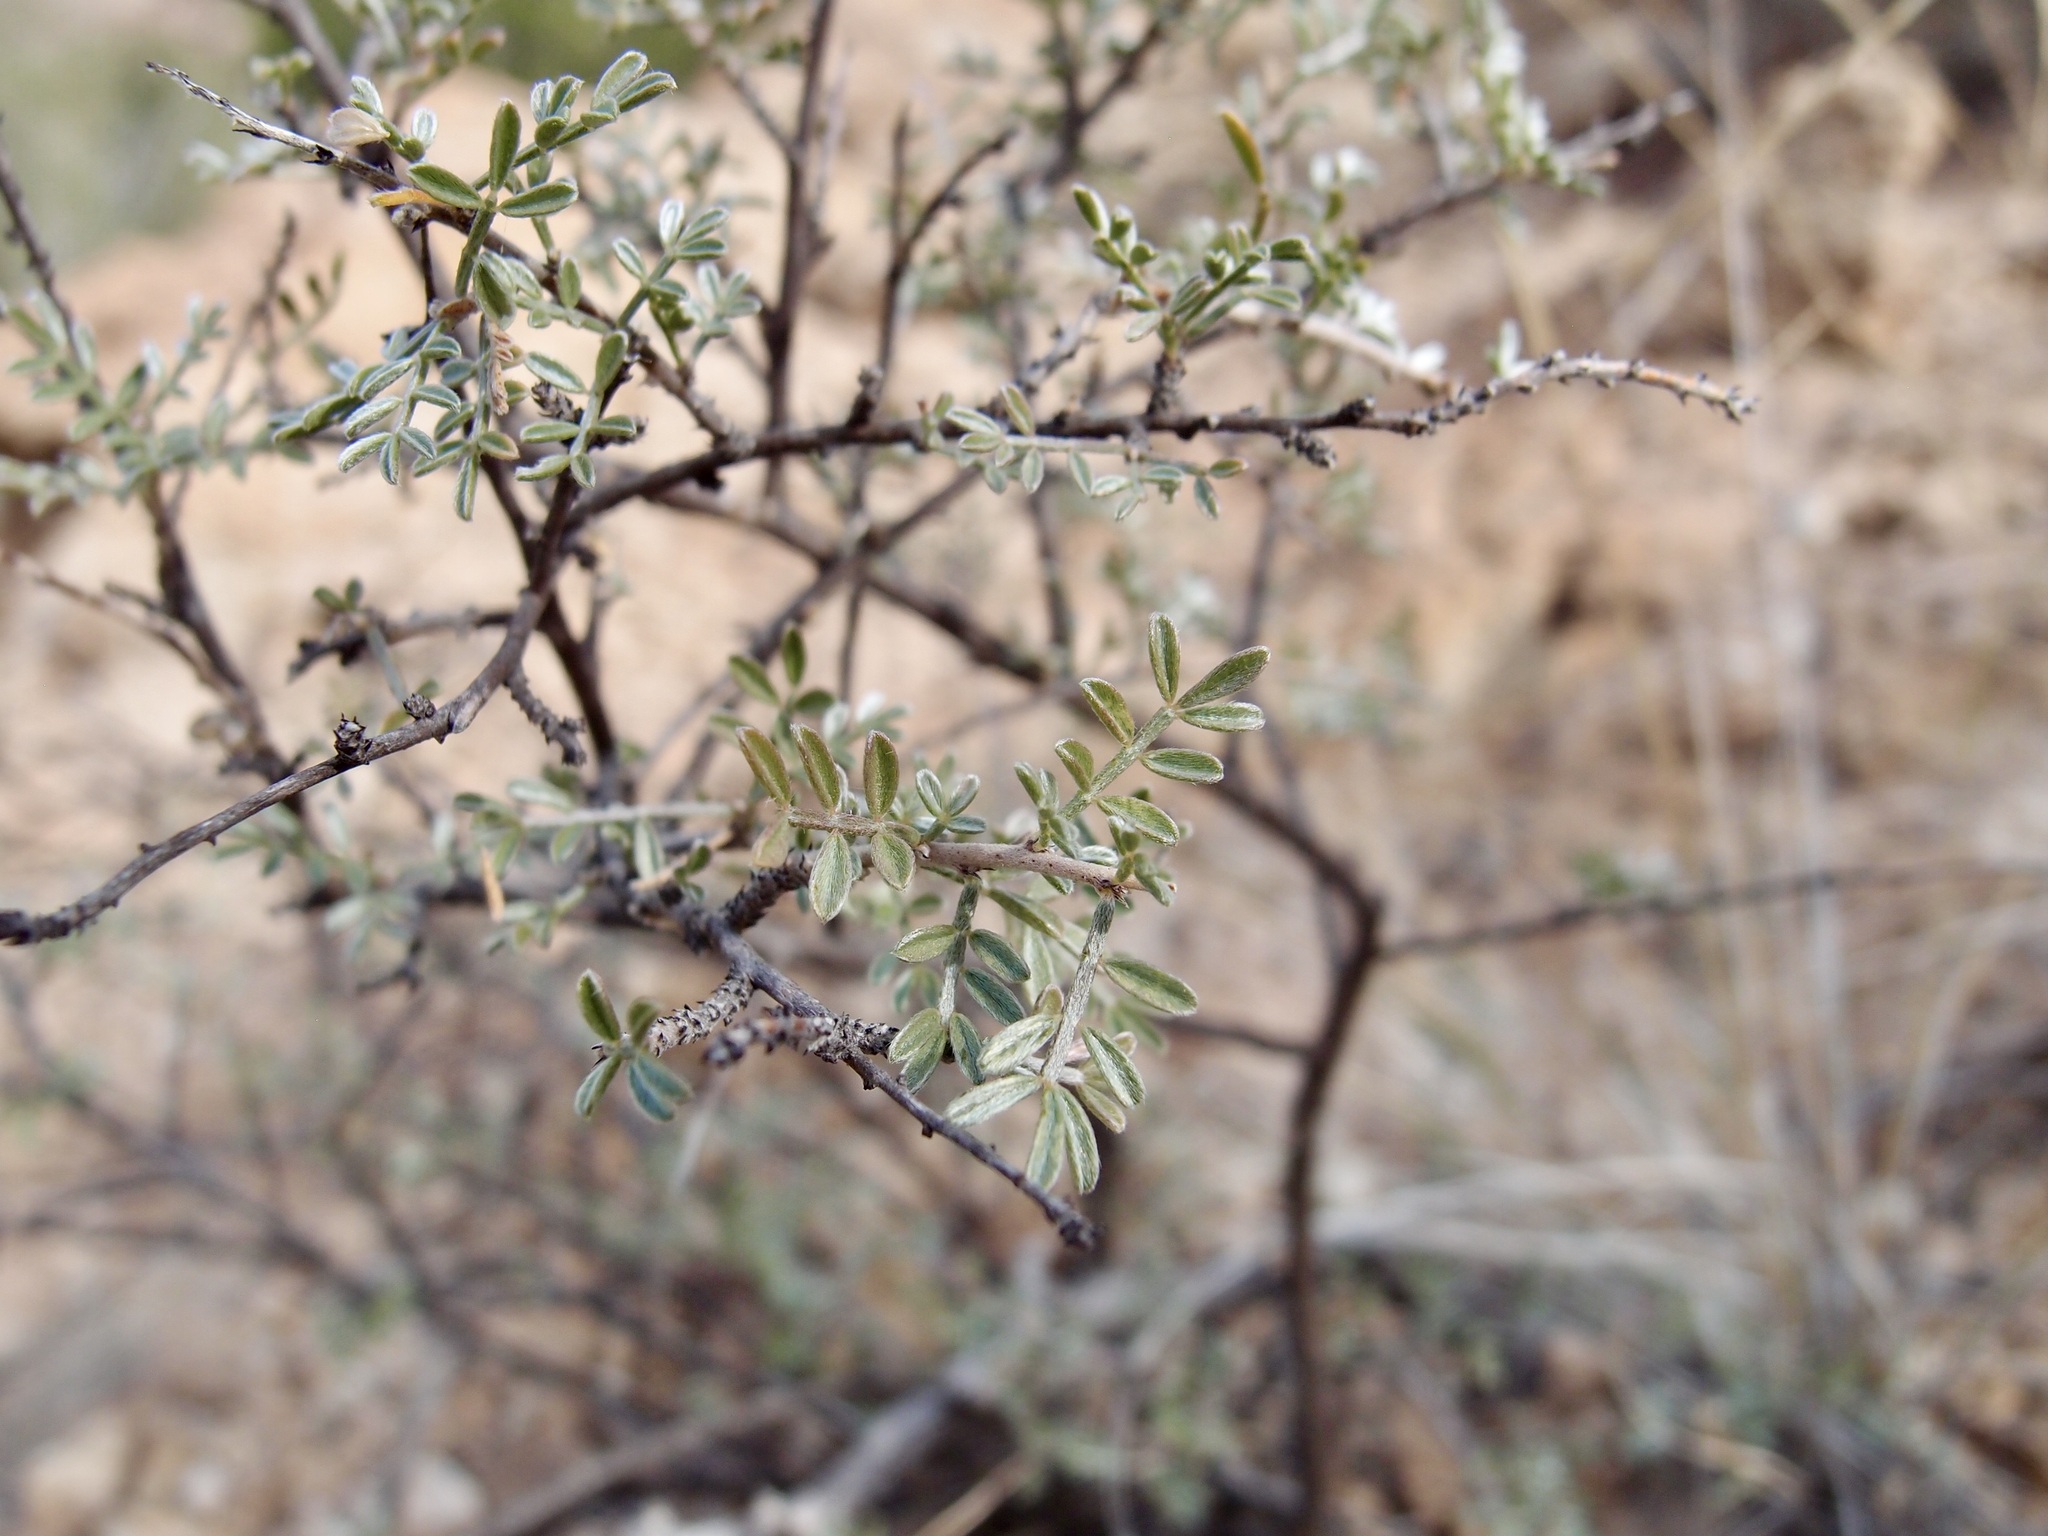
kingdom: Plantae
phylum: Tracheophyta
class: Magnoliopsida
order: Fabales
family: Fabaceae
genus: Dalea
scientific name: Dalea purpusii
